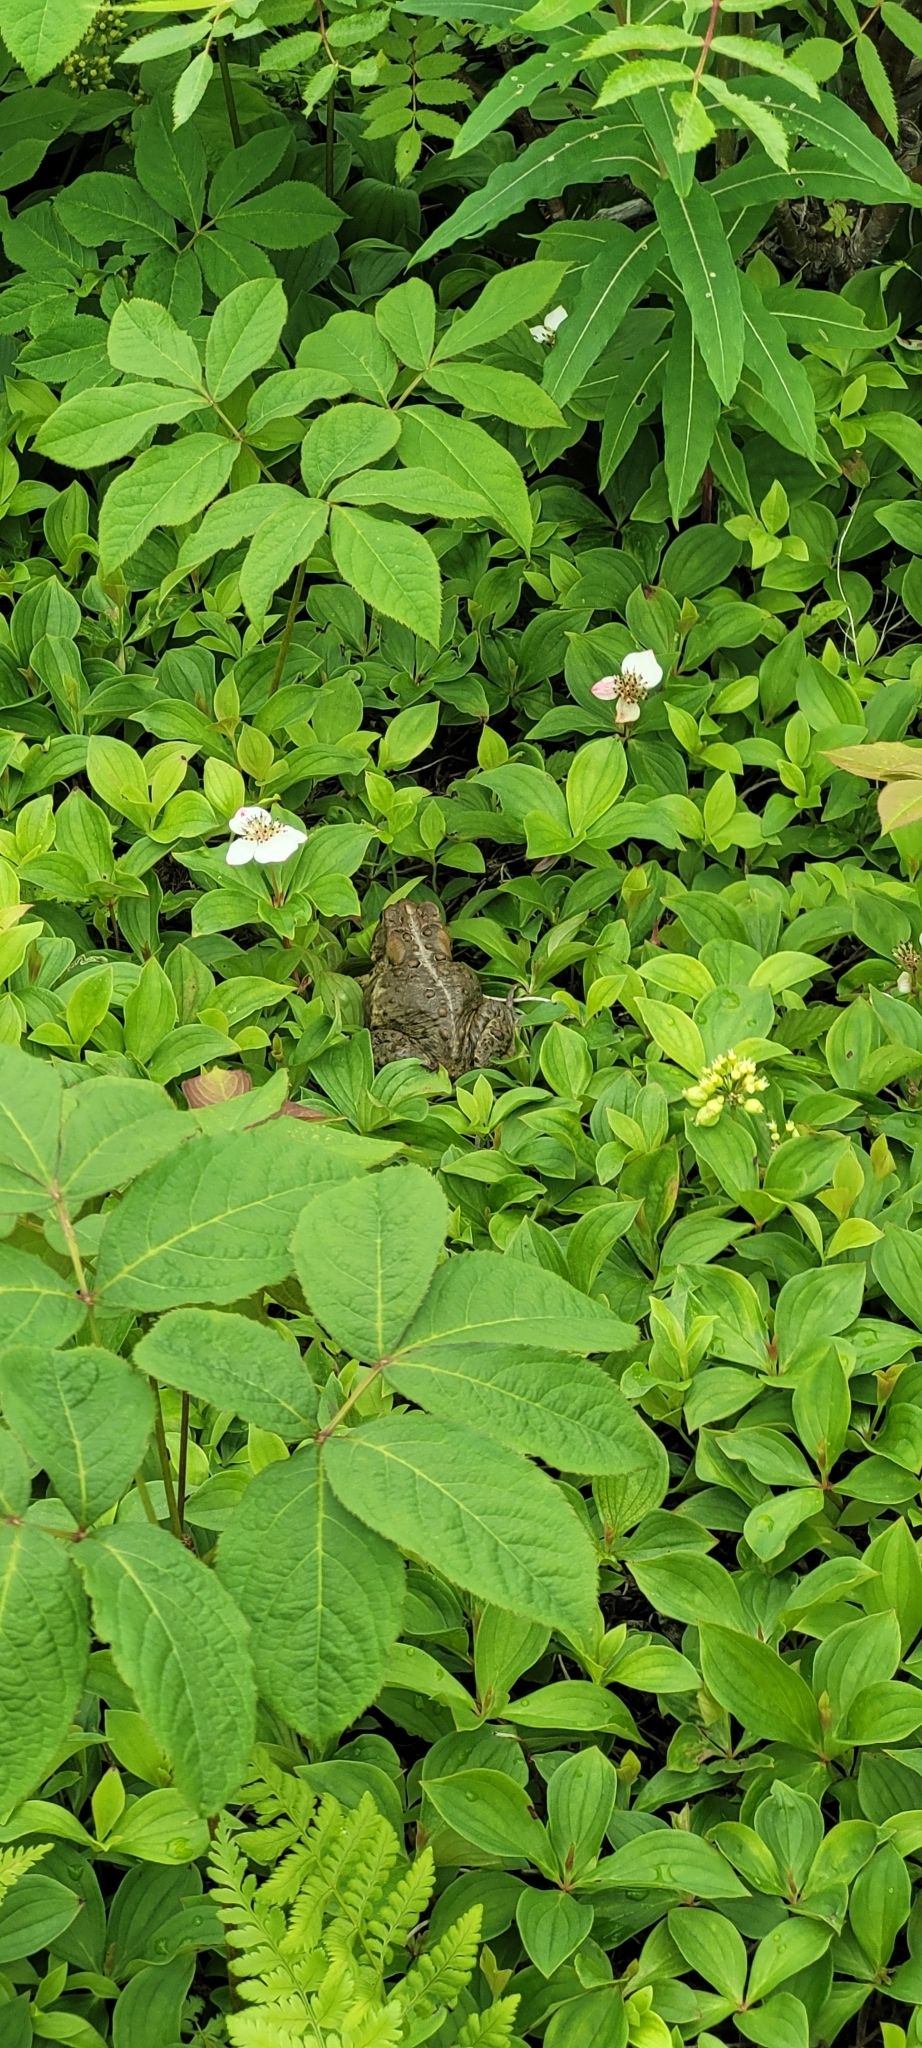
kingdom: Animalia
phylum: Chordata
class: Amphibia
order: Anura
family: Bufonidae
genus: Anaxyrus
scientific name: Anaxyrus americanus
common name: American toad
